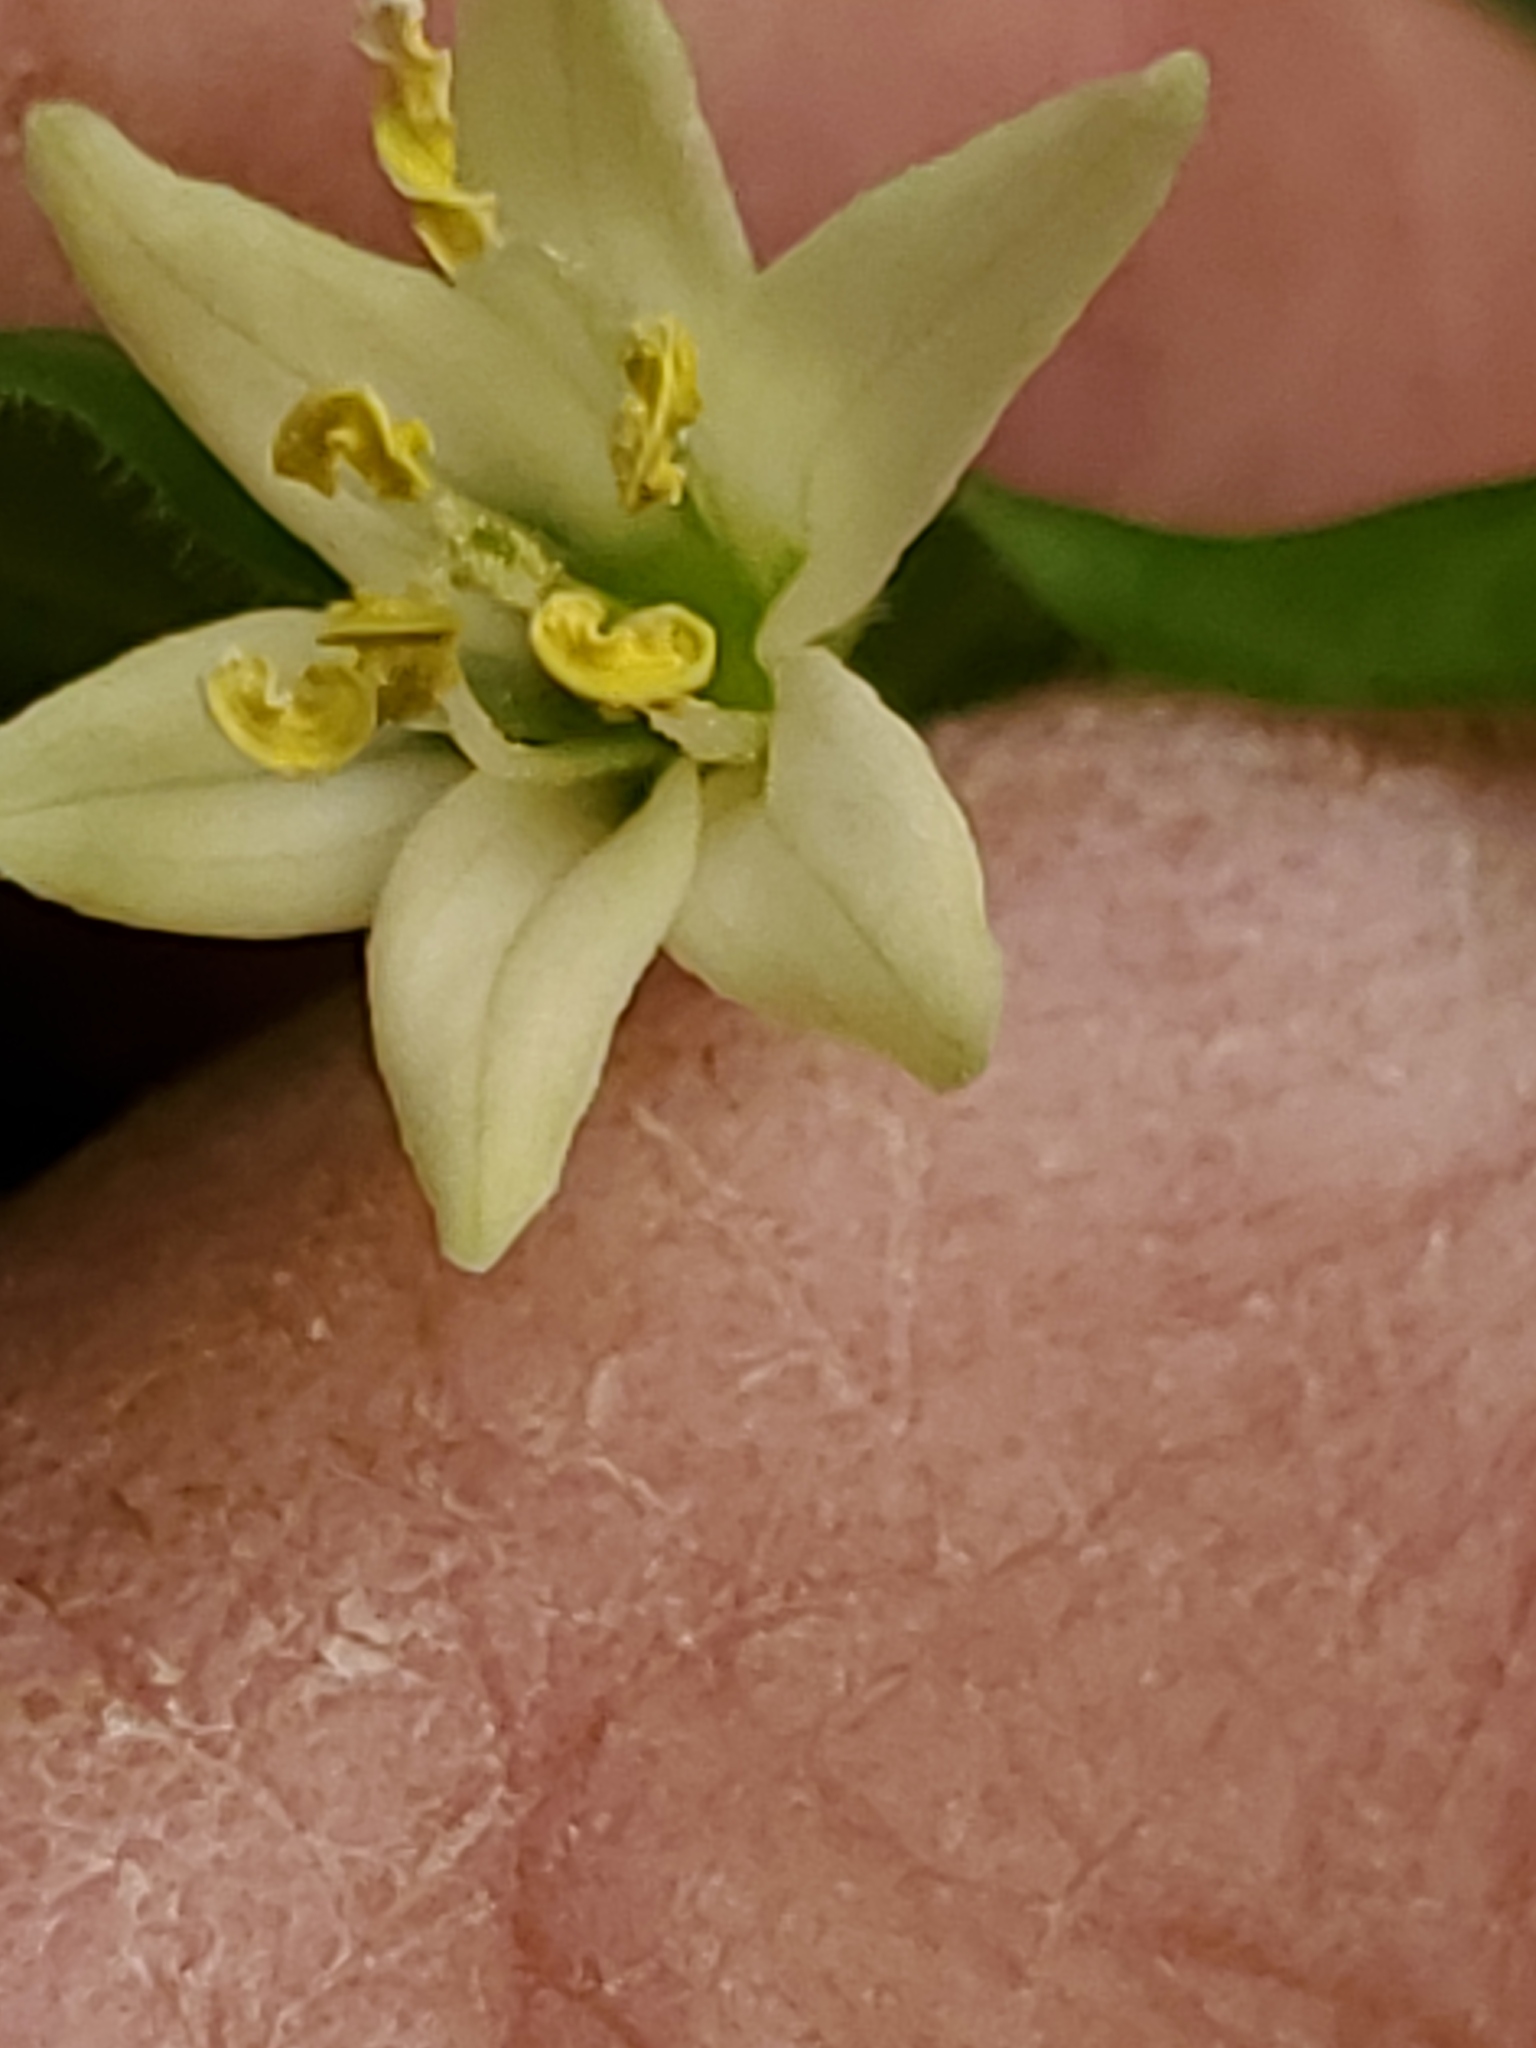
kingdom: Plantae
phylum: Tracheophyta
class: Liliopsida
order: Liliales
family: Liliaceae
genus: Prosartes
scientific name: Prosartes trachycarpa
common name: Rough-fruit fairy-bells
